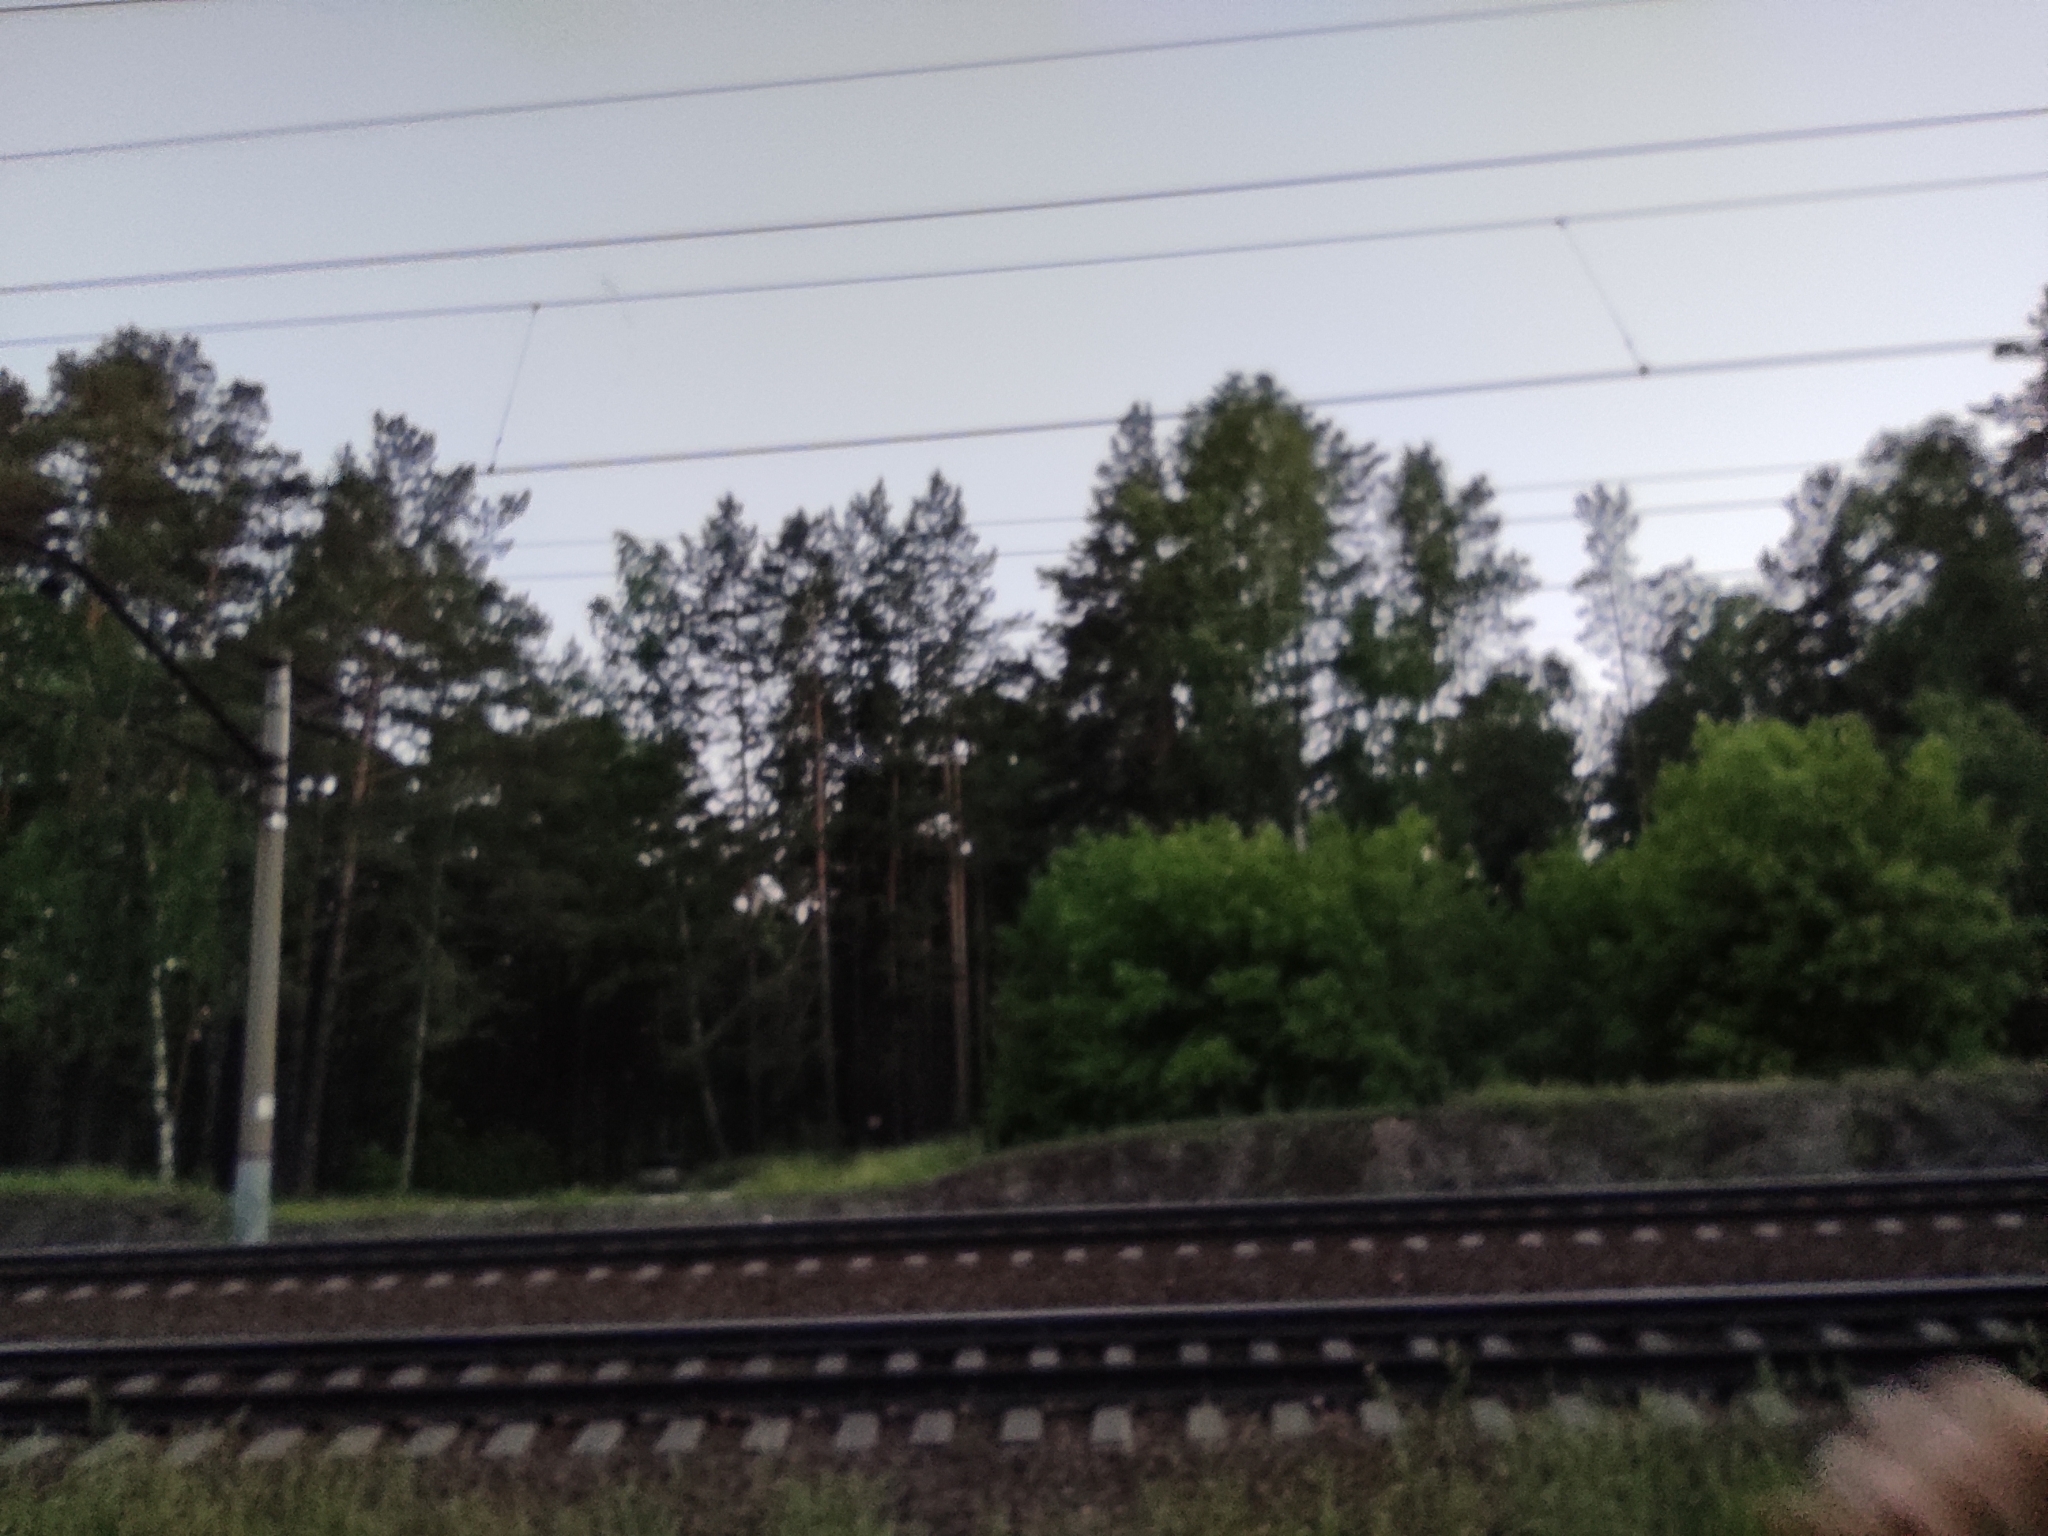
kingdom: Plantae
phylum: Tracheophyta
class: Pinopsida
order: Pinales
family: Pinaceae
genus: Pinus
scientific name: Pinus sylvestris
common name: Scots pine
